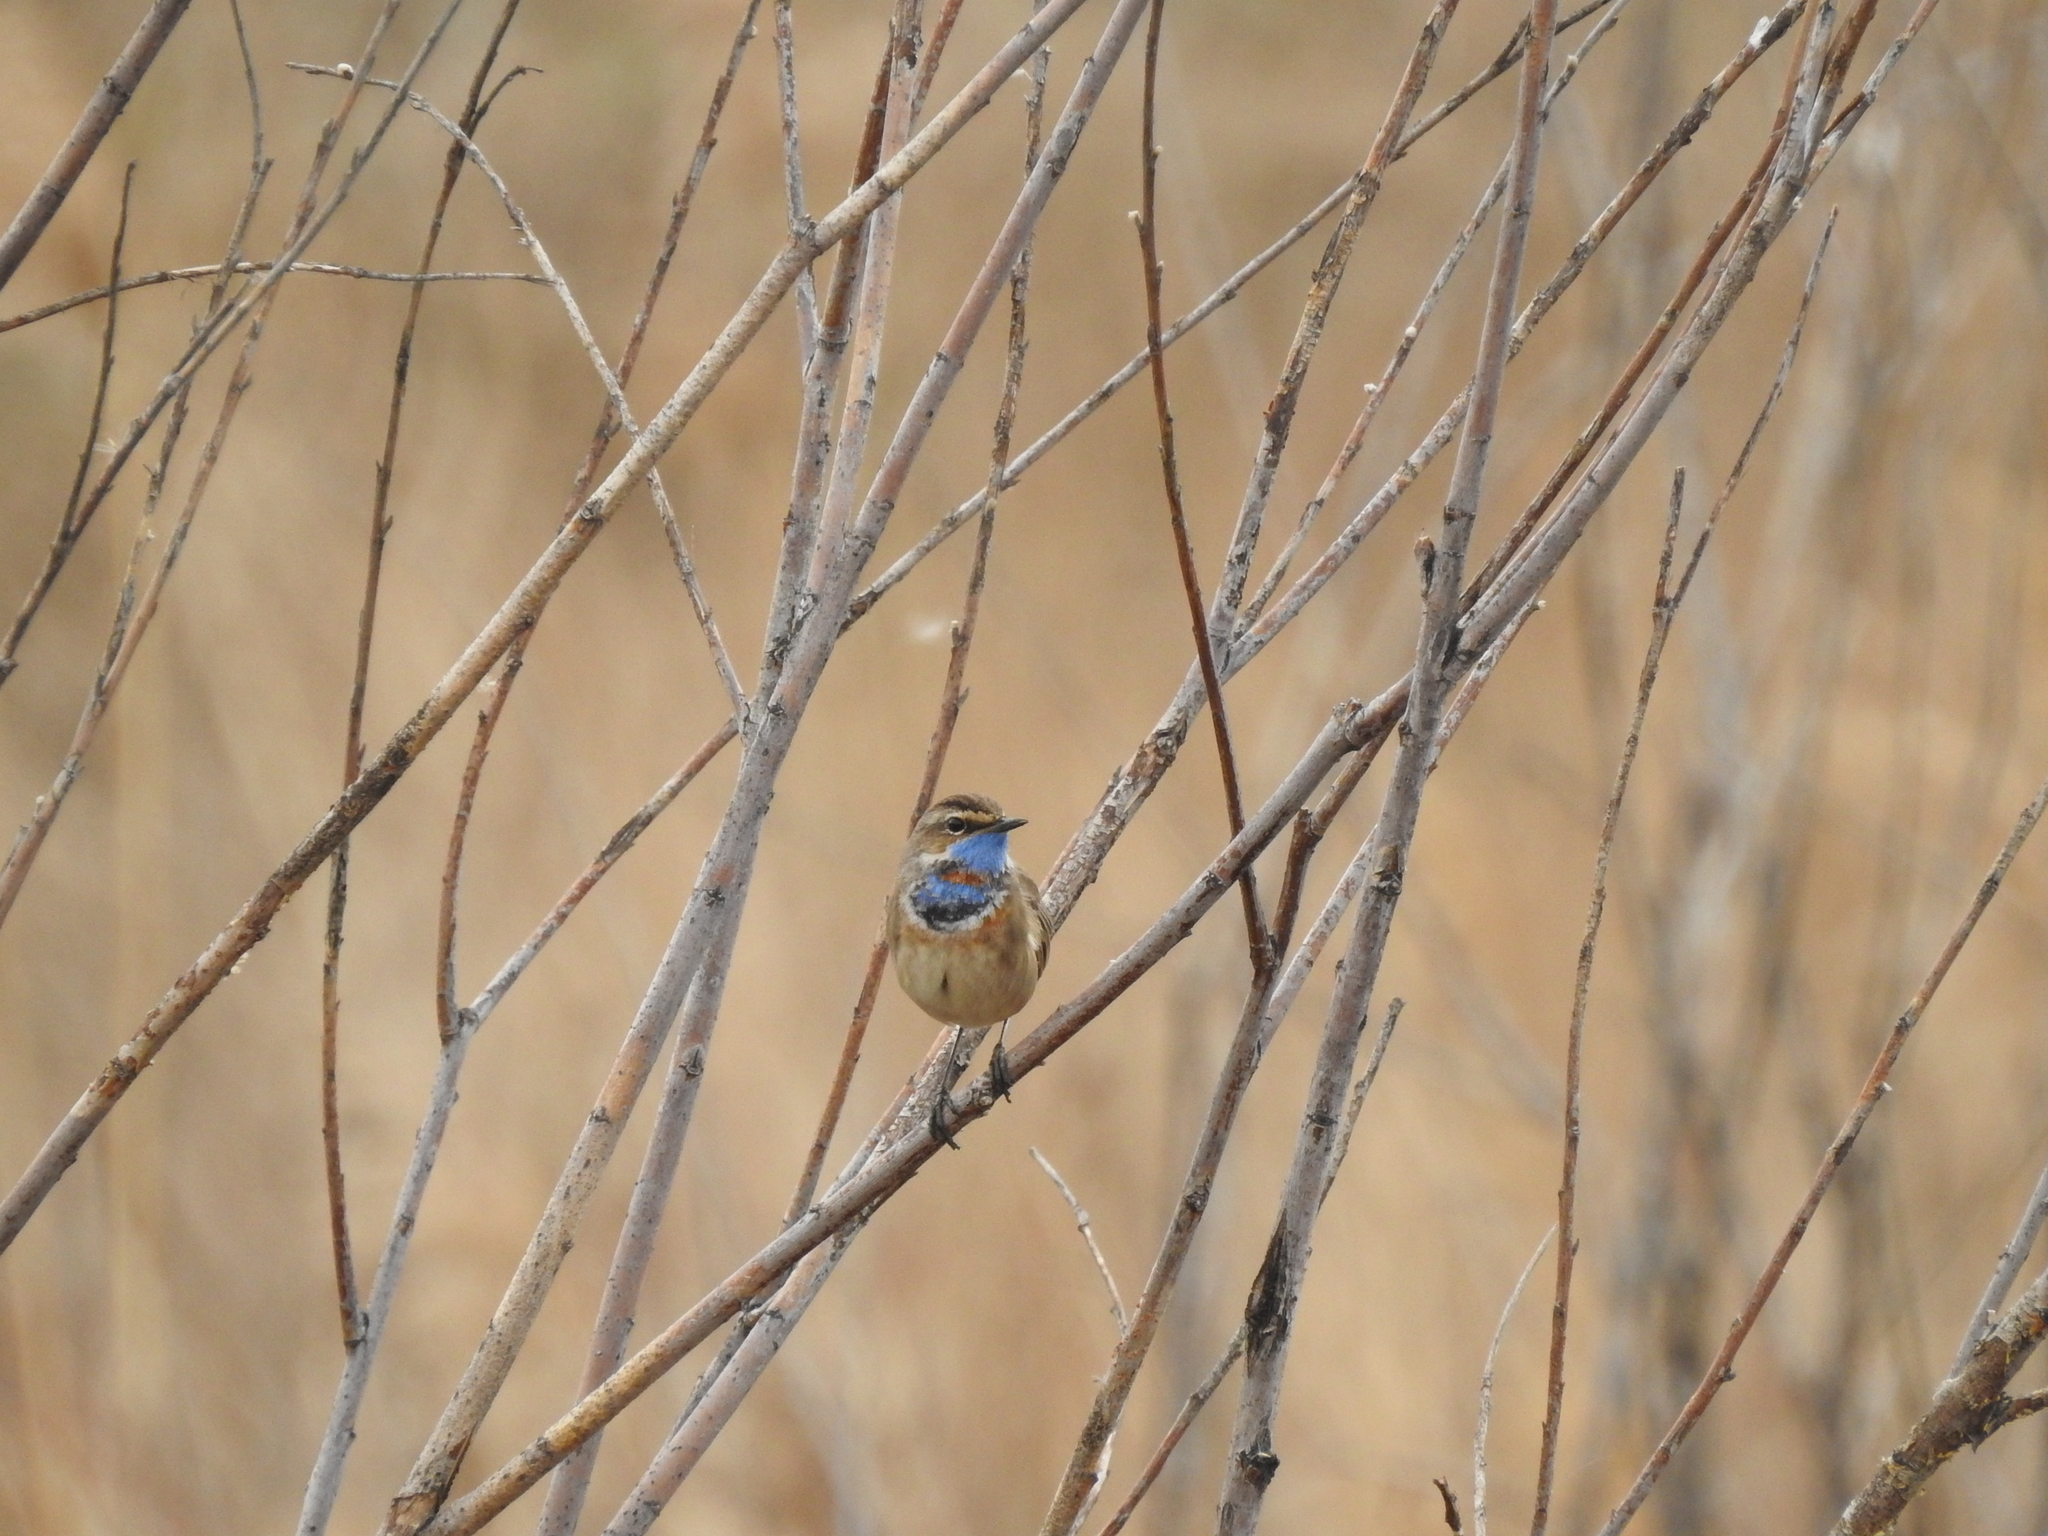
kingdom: Animalia
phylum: Chordata
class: Aves
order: Passeriformes
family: Muscicapidae
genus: Luscinia
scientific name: Luscinia svecica
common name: Bluethroat
